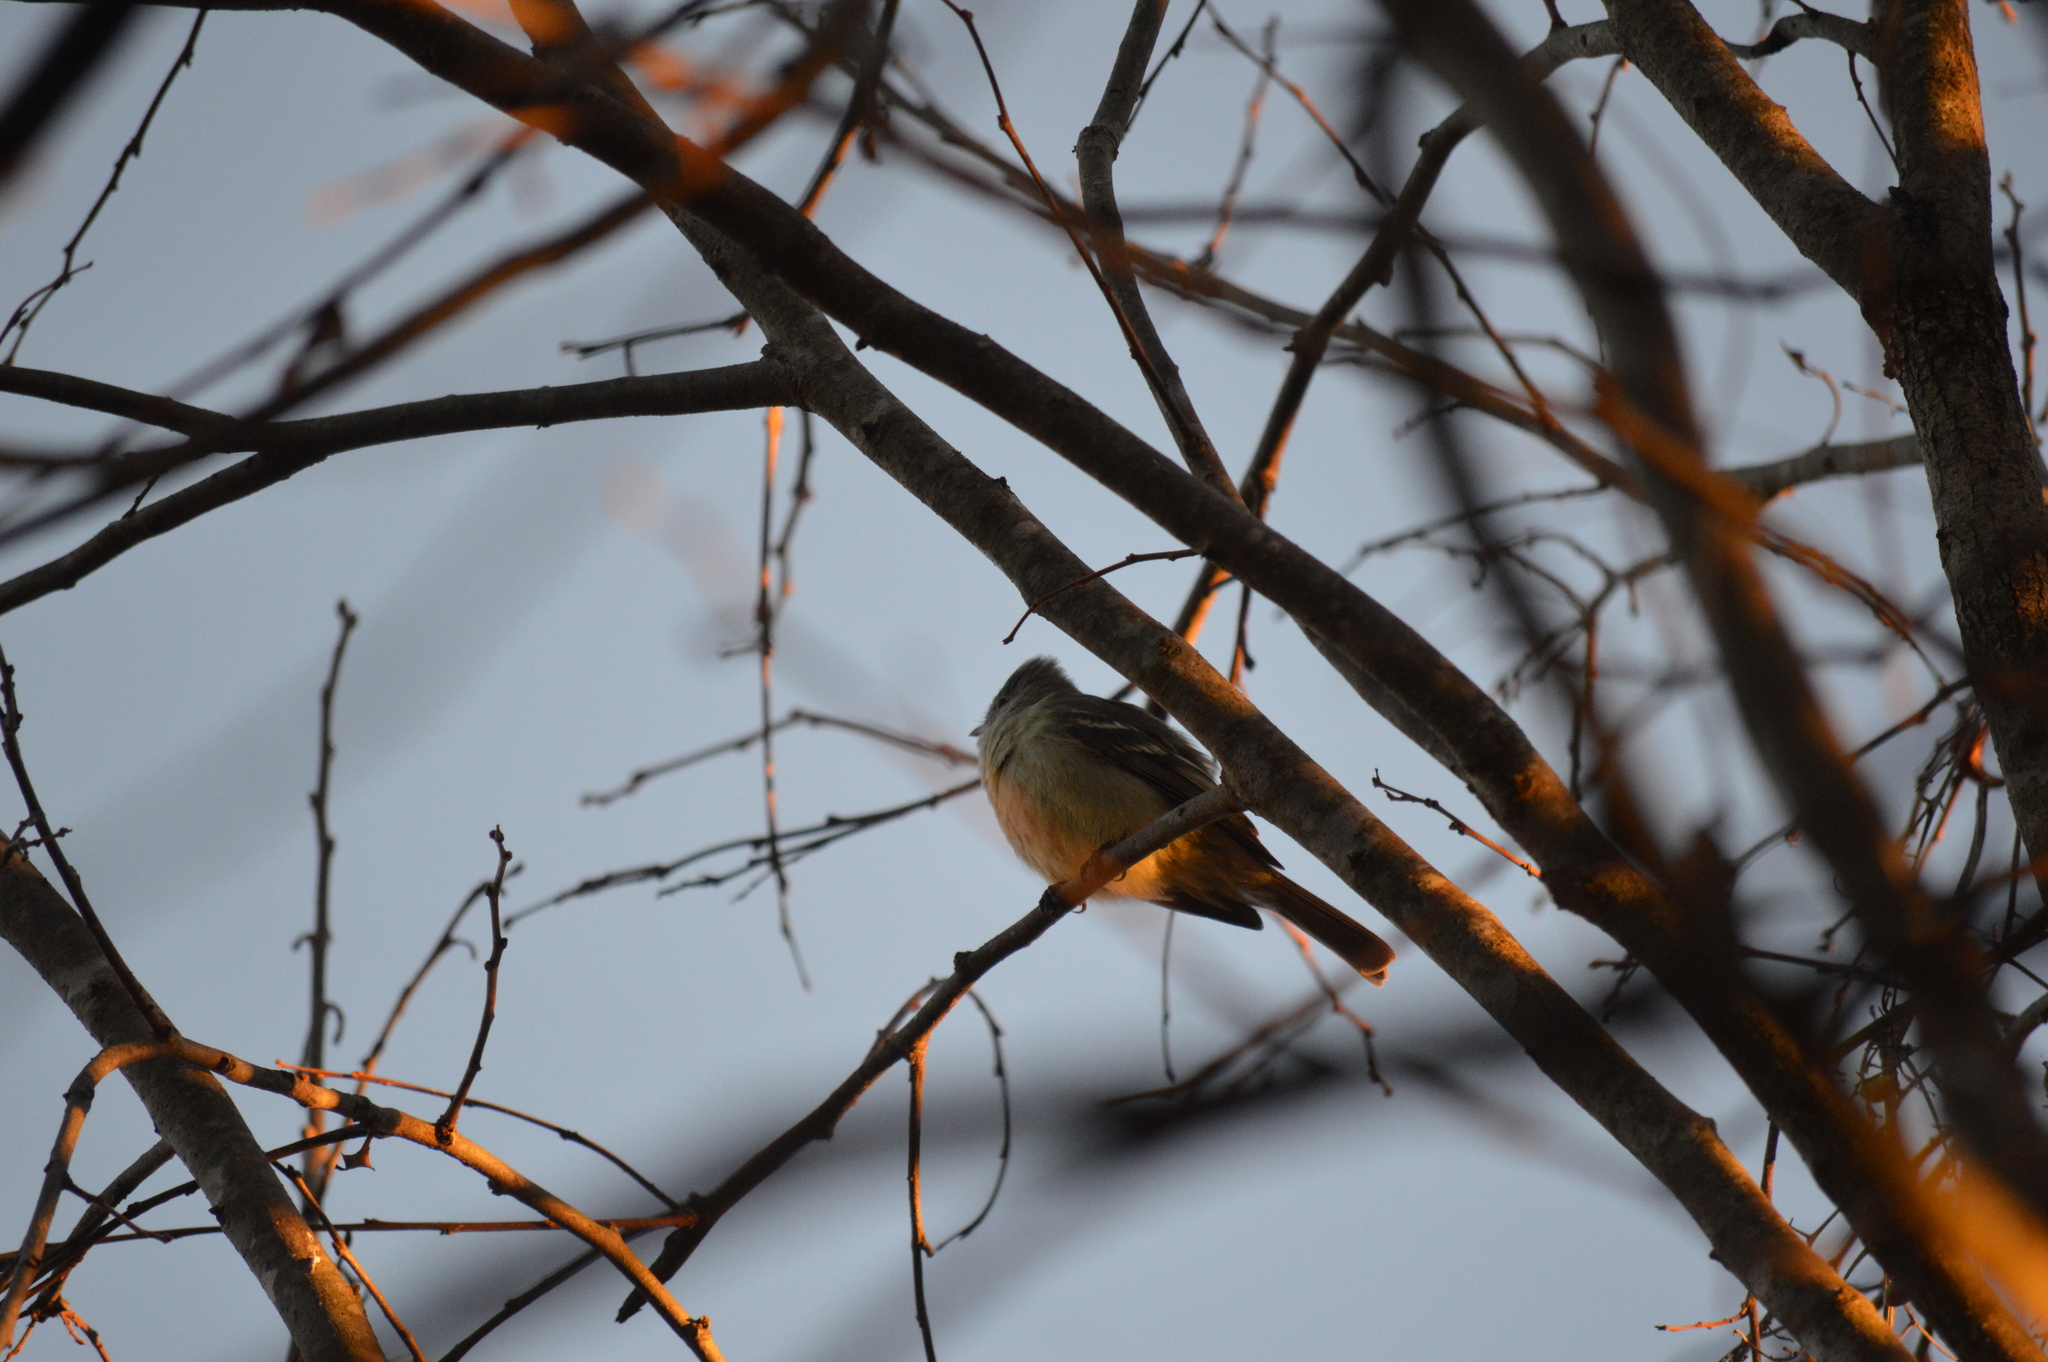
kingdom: Animalia
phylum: Chordata
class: Aves
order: Passeriformes
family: Tyrannidae
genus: Elaenia
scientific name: Elaenia flavogaster
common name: Yellow-bellied elaenia
